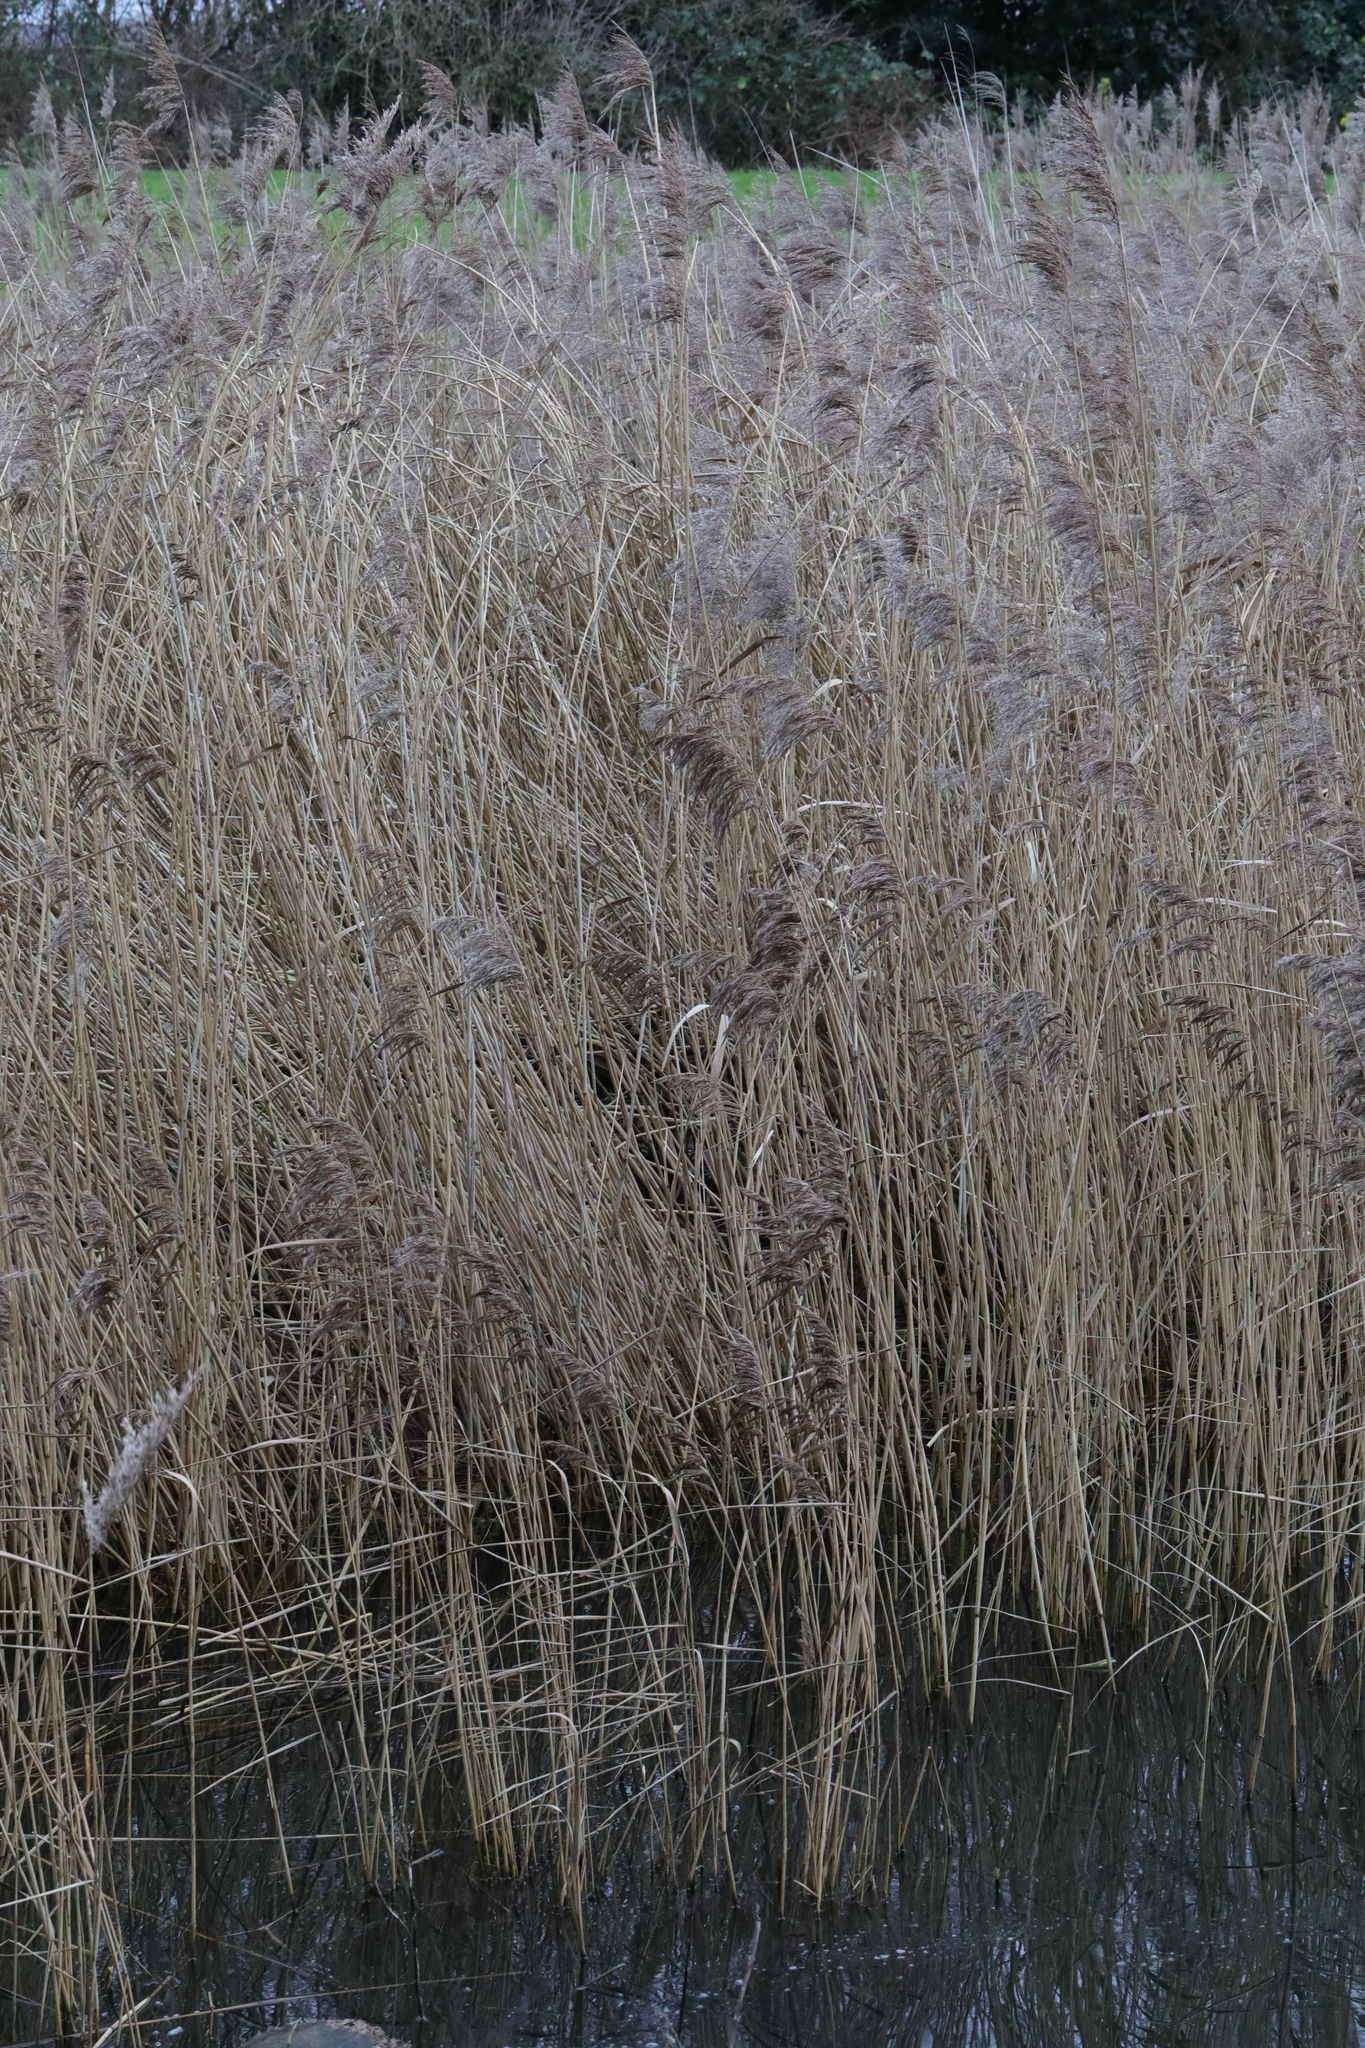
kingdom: Plantae
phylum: Tracheophyta
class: Liliopsida
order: Poales
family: Poaceae
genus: Phragmites
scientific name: Phragmites australis
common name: Common reed
